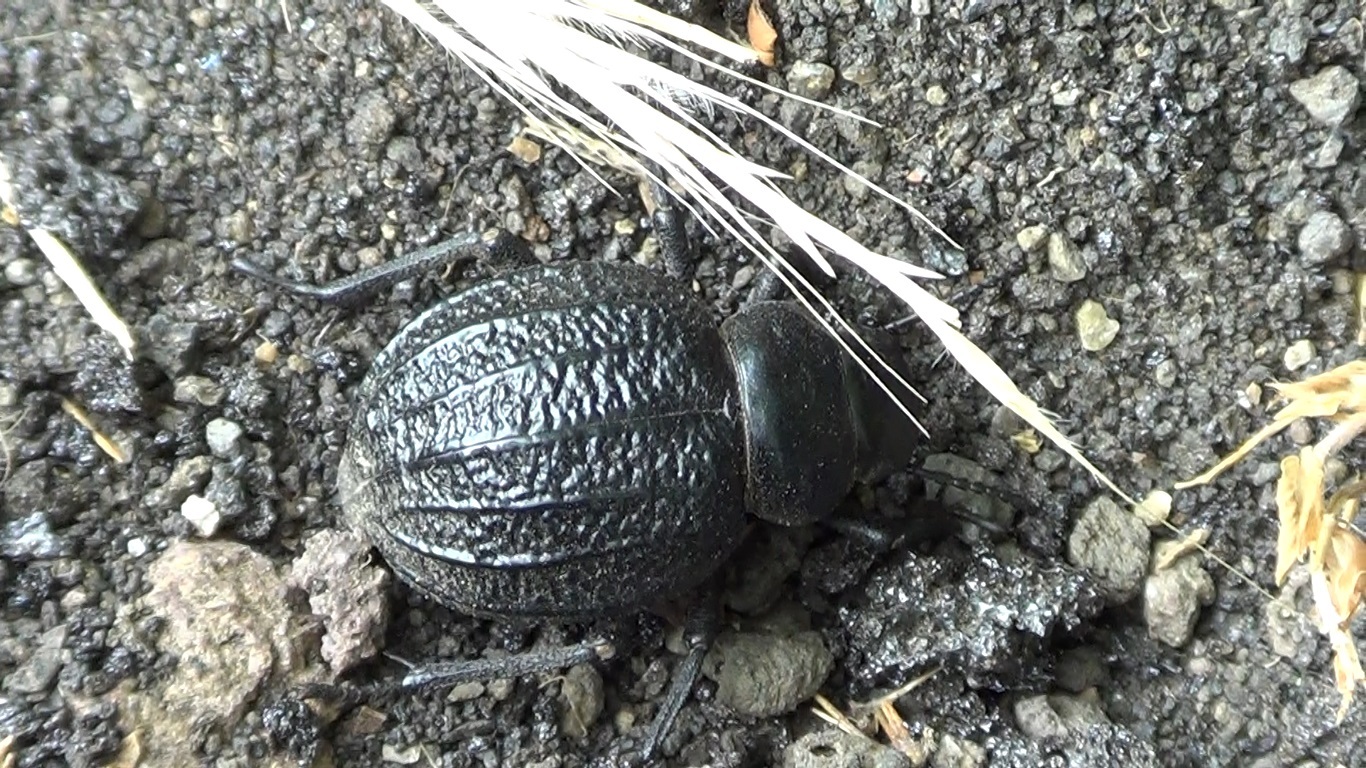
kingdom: Animalia
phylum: Arthropoda
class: Insecta
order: Coleoptera
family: Tenebrionidae
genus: Pimelia
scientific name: Pimelia rugulosa
